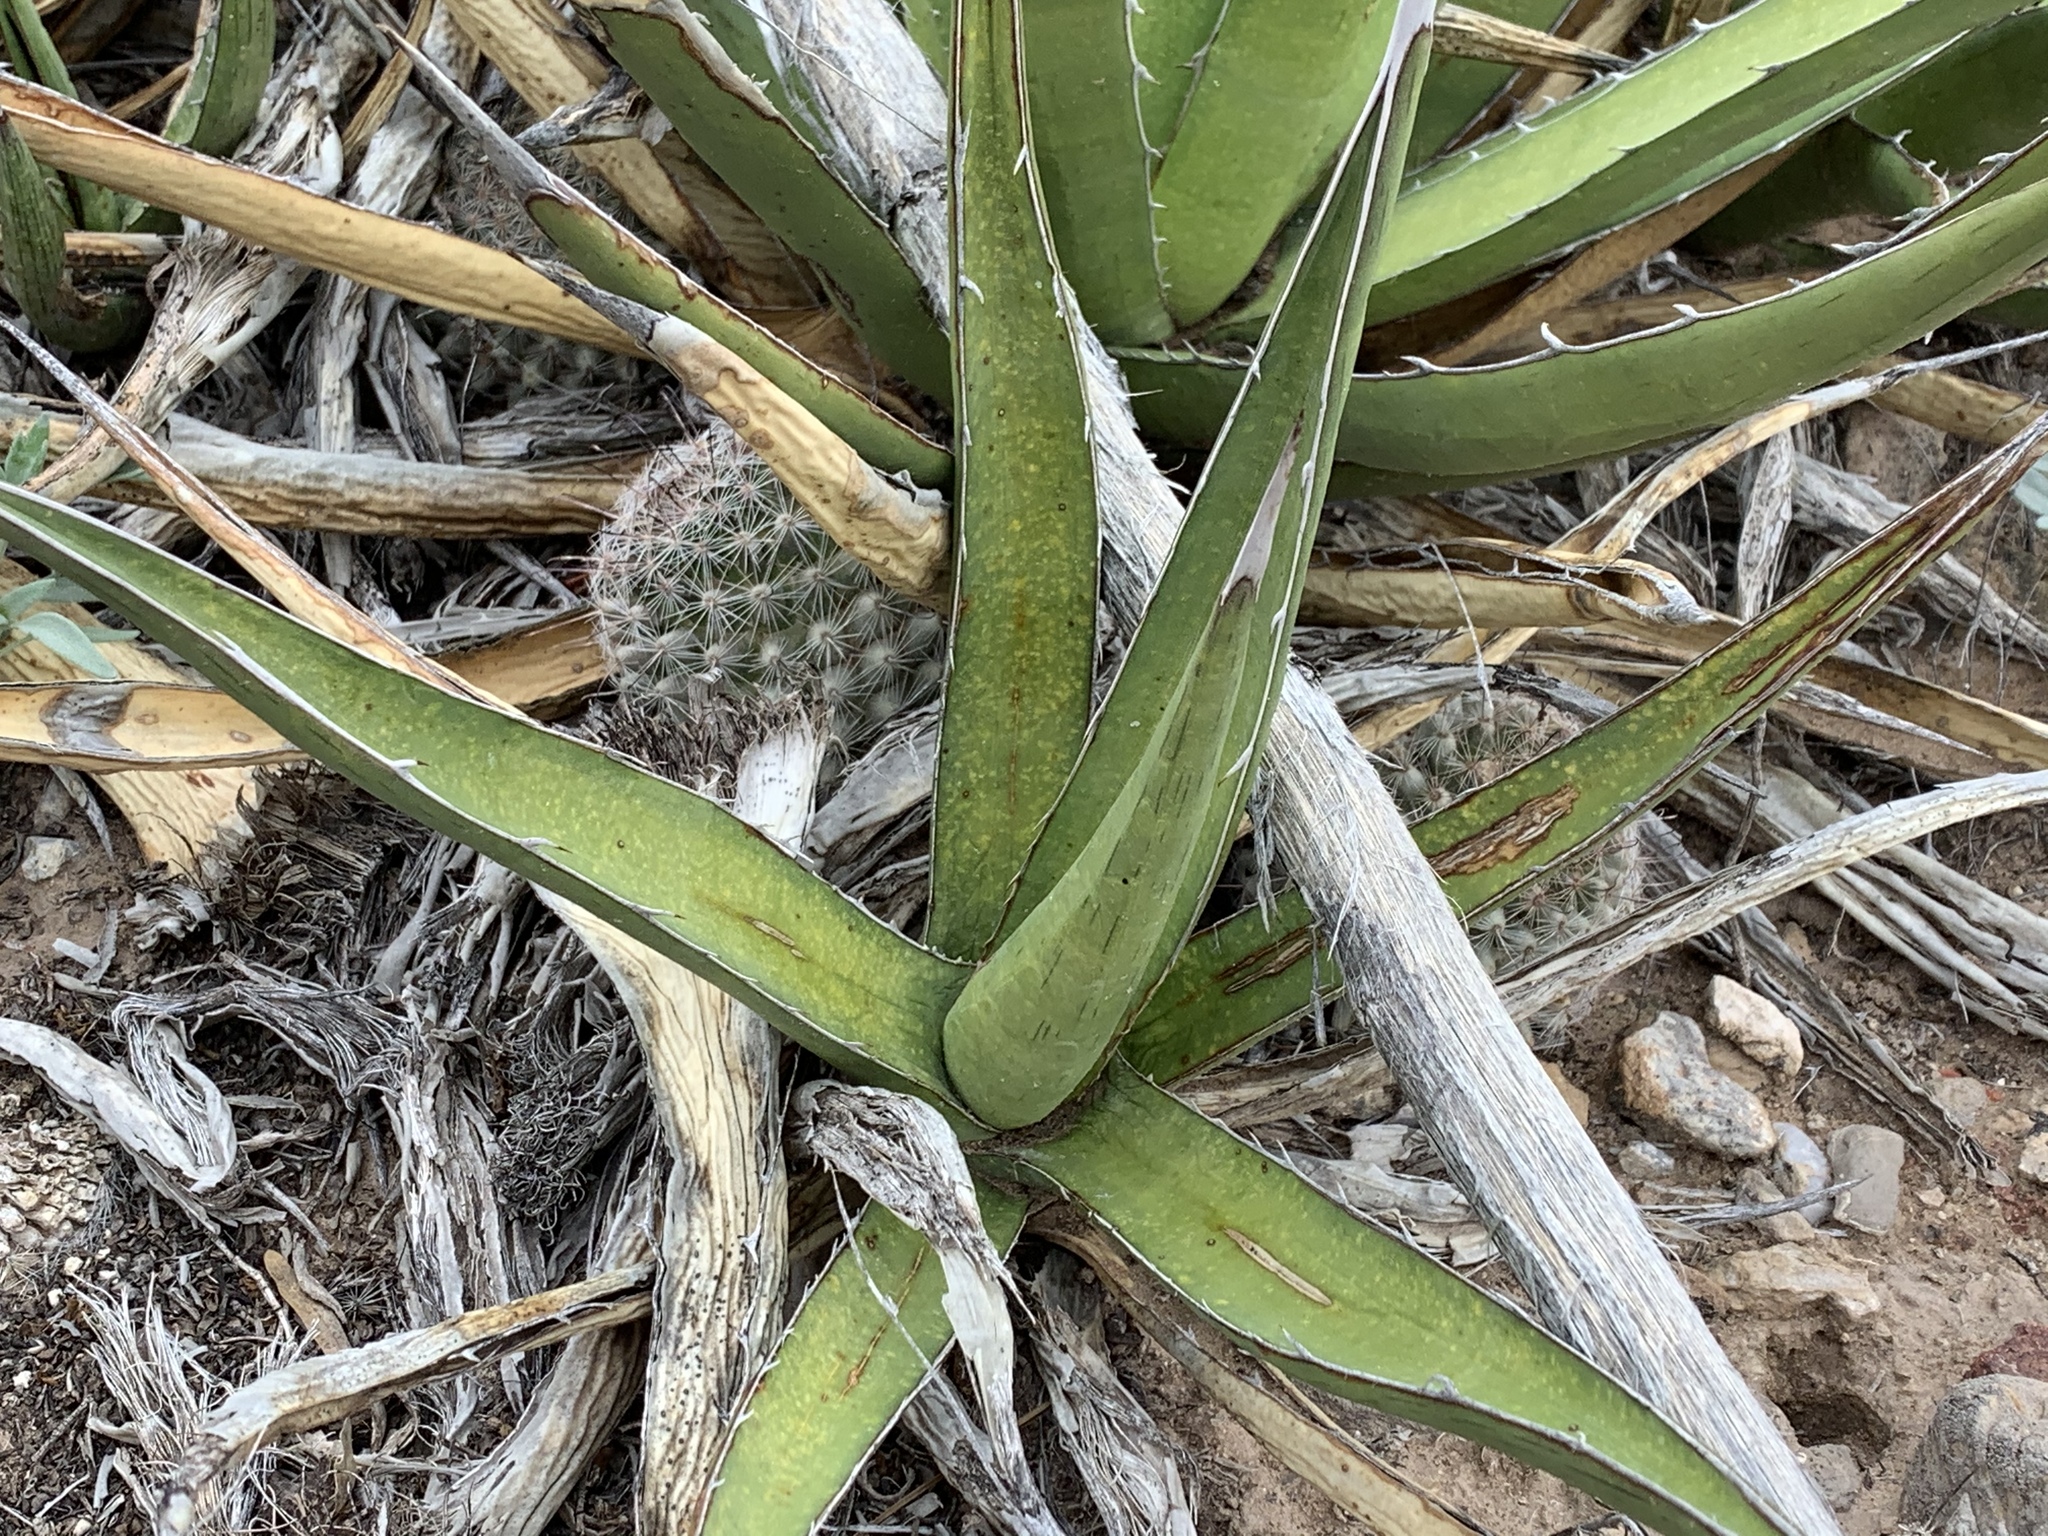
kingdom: Plantae
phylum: Tracheophyta
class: Liliopsida
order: Asparagales
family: Asparagaceae
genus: Agave
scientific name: Agave lechuguilla
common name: Lecheguilla agave
